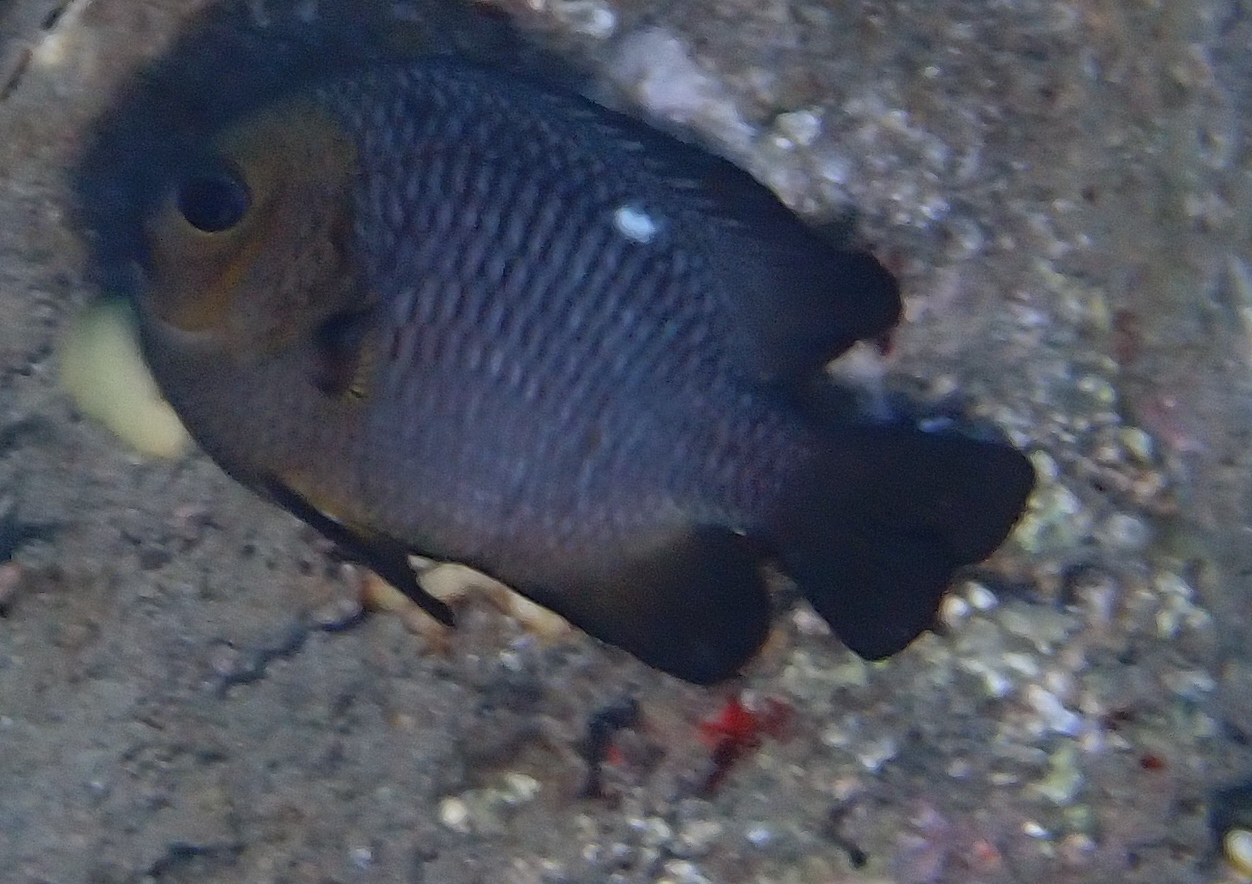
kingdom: Animalia
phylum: Chordata
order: Perciformes
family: Pomacentridae
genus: Dascyllus
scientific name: Dascyllus trimaculatus
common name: Threespot dascyllus
